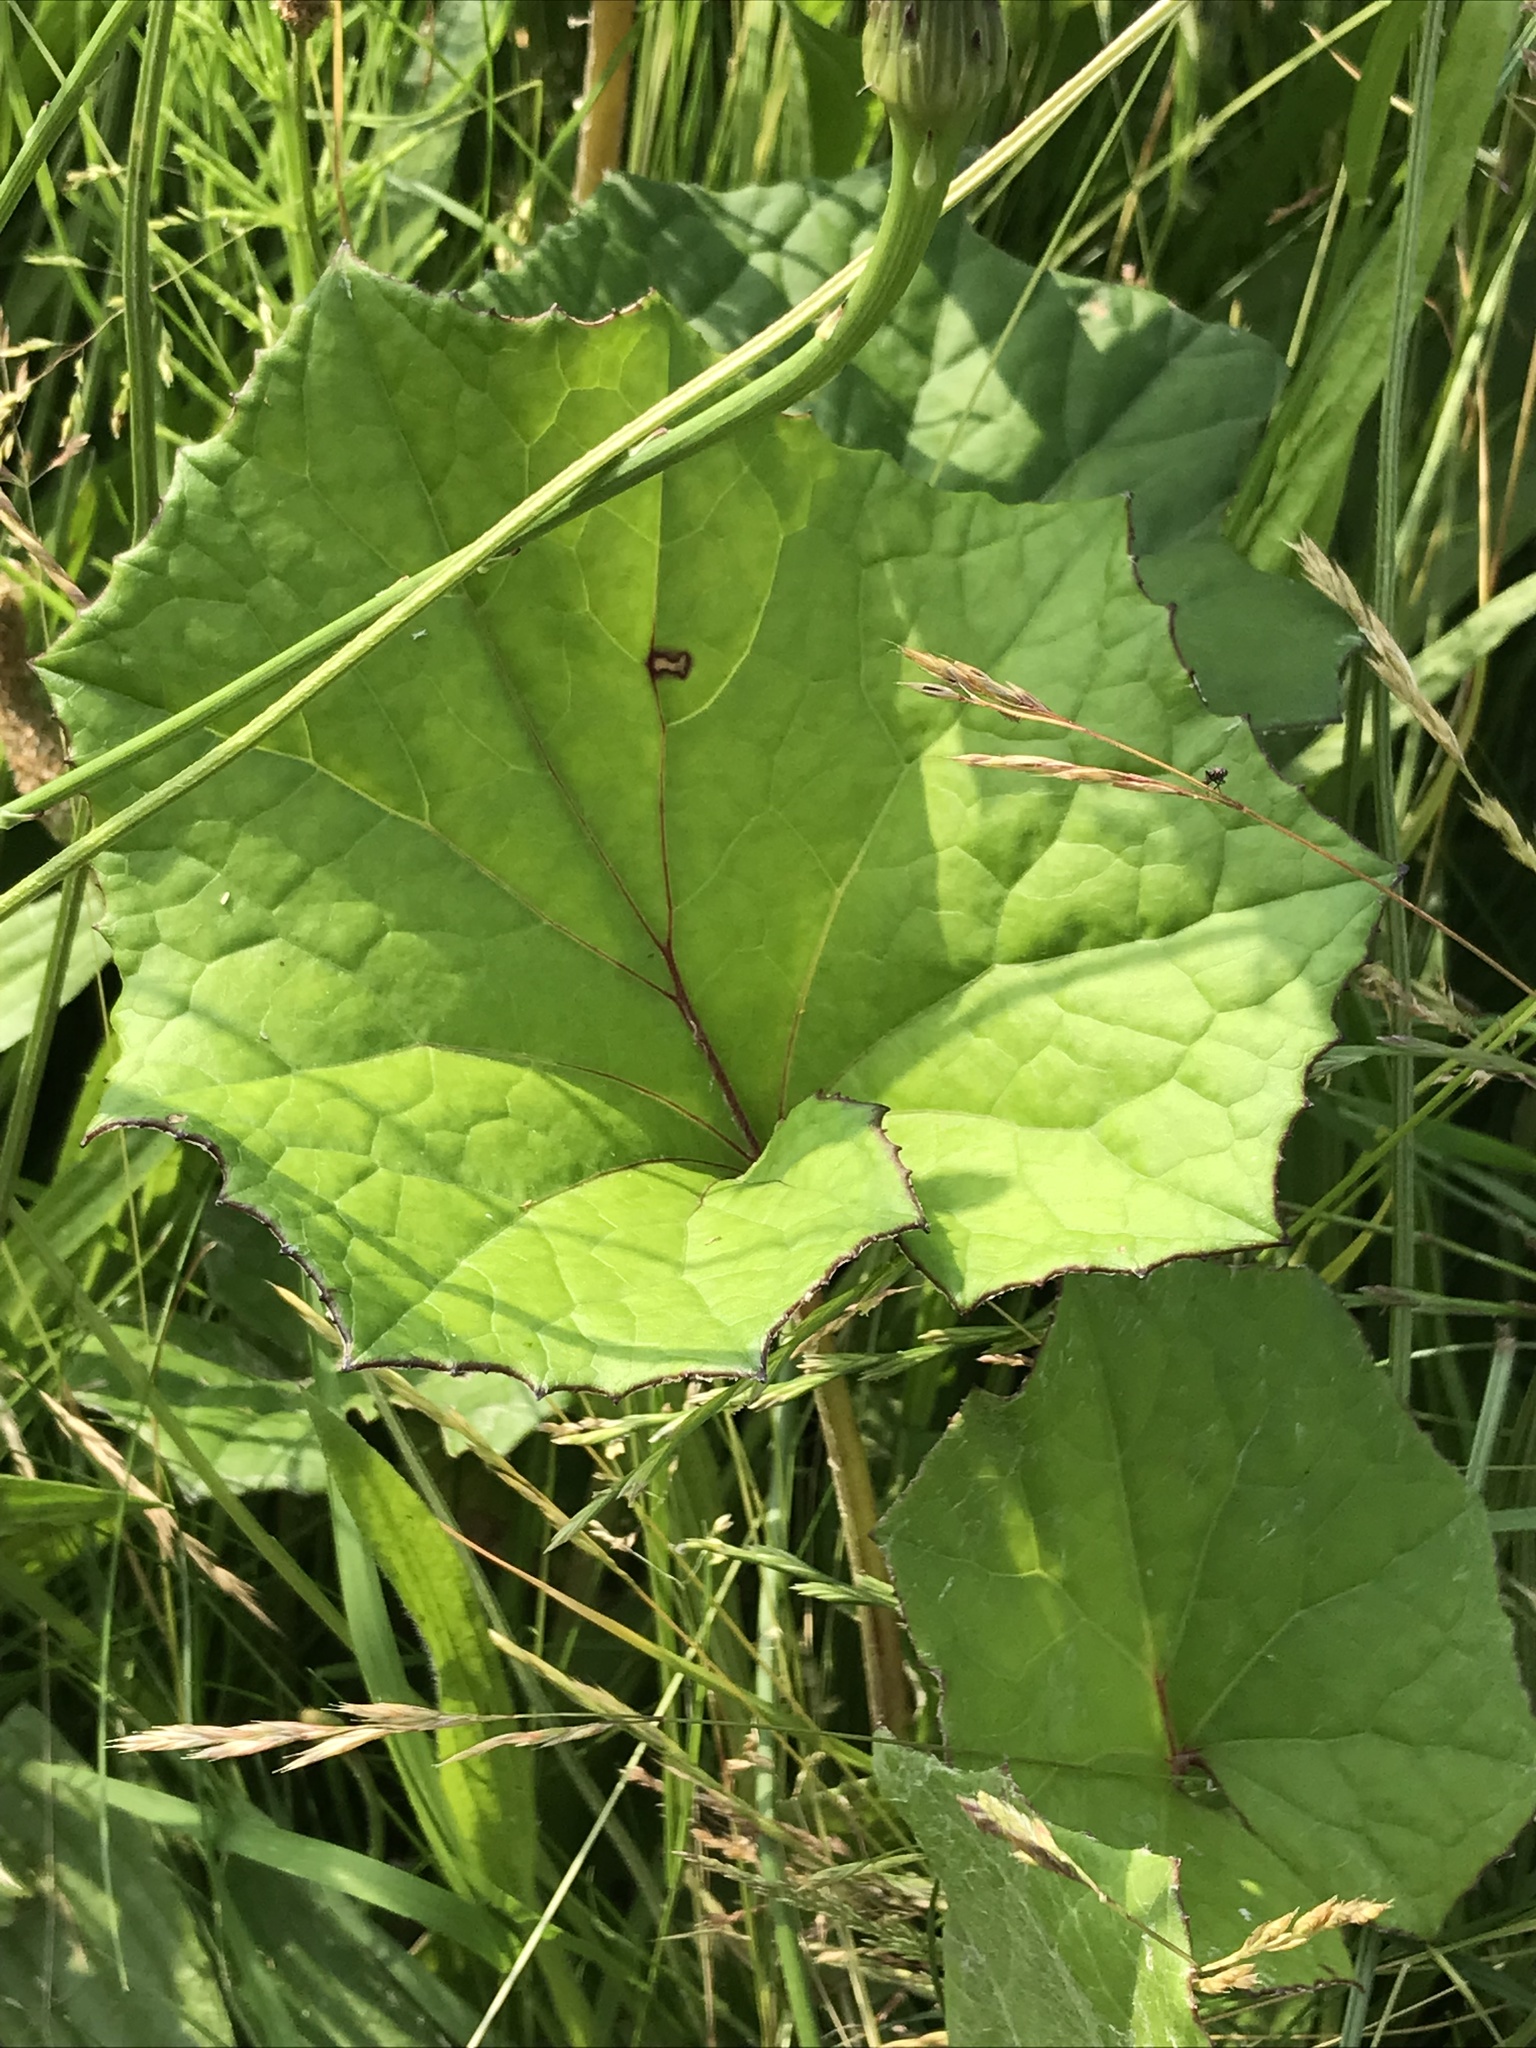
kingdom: Plantae
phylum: Tracheophyta
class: Magnoliopsida
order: Asterales
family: Asteraceae
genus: Tussilago
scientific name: Tussilago farfara
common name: Coltsfoot
